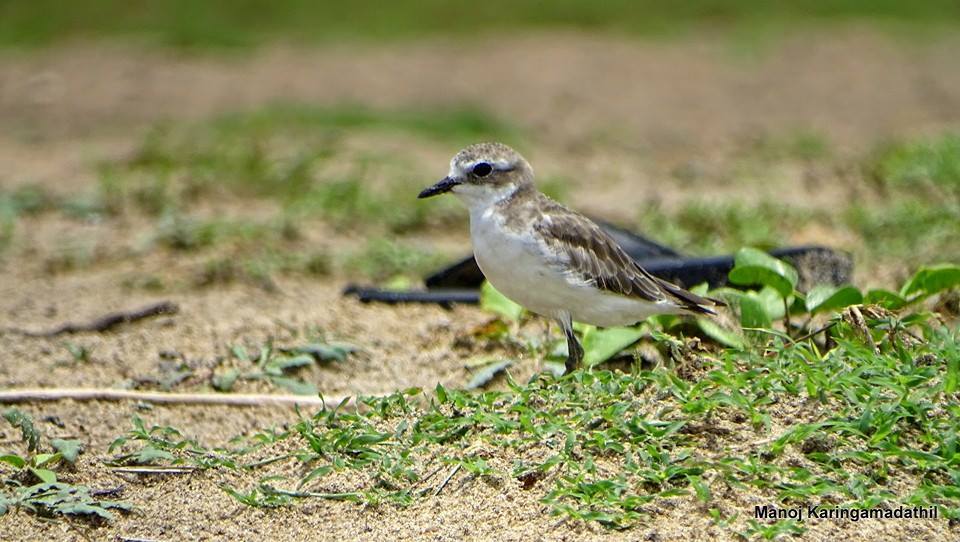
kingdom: Animalia
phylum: Chordata
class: Aves
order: Charadriiformes
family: Charadriidae
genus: Anarhynchus
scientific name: Anarhynchus
